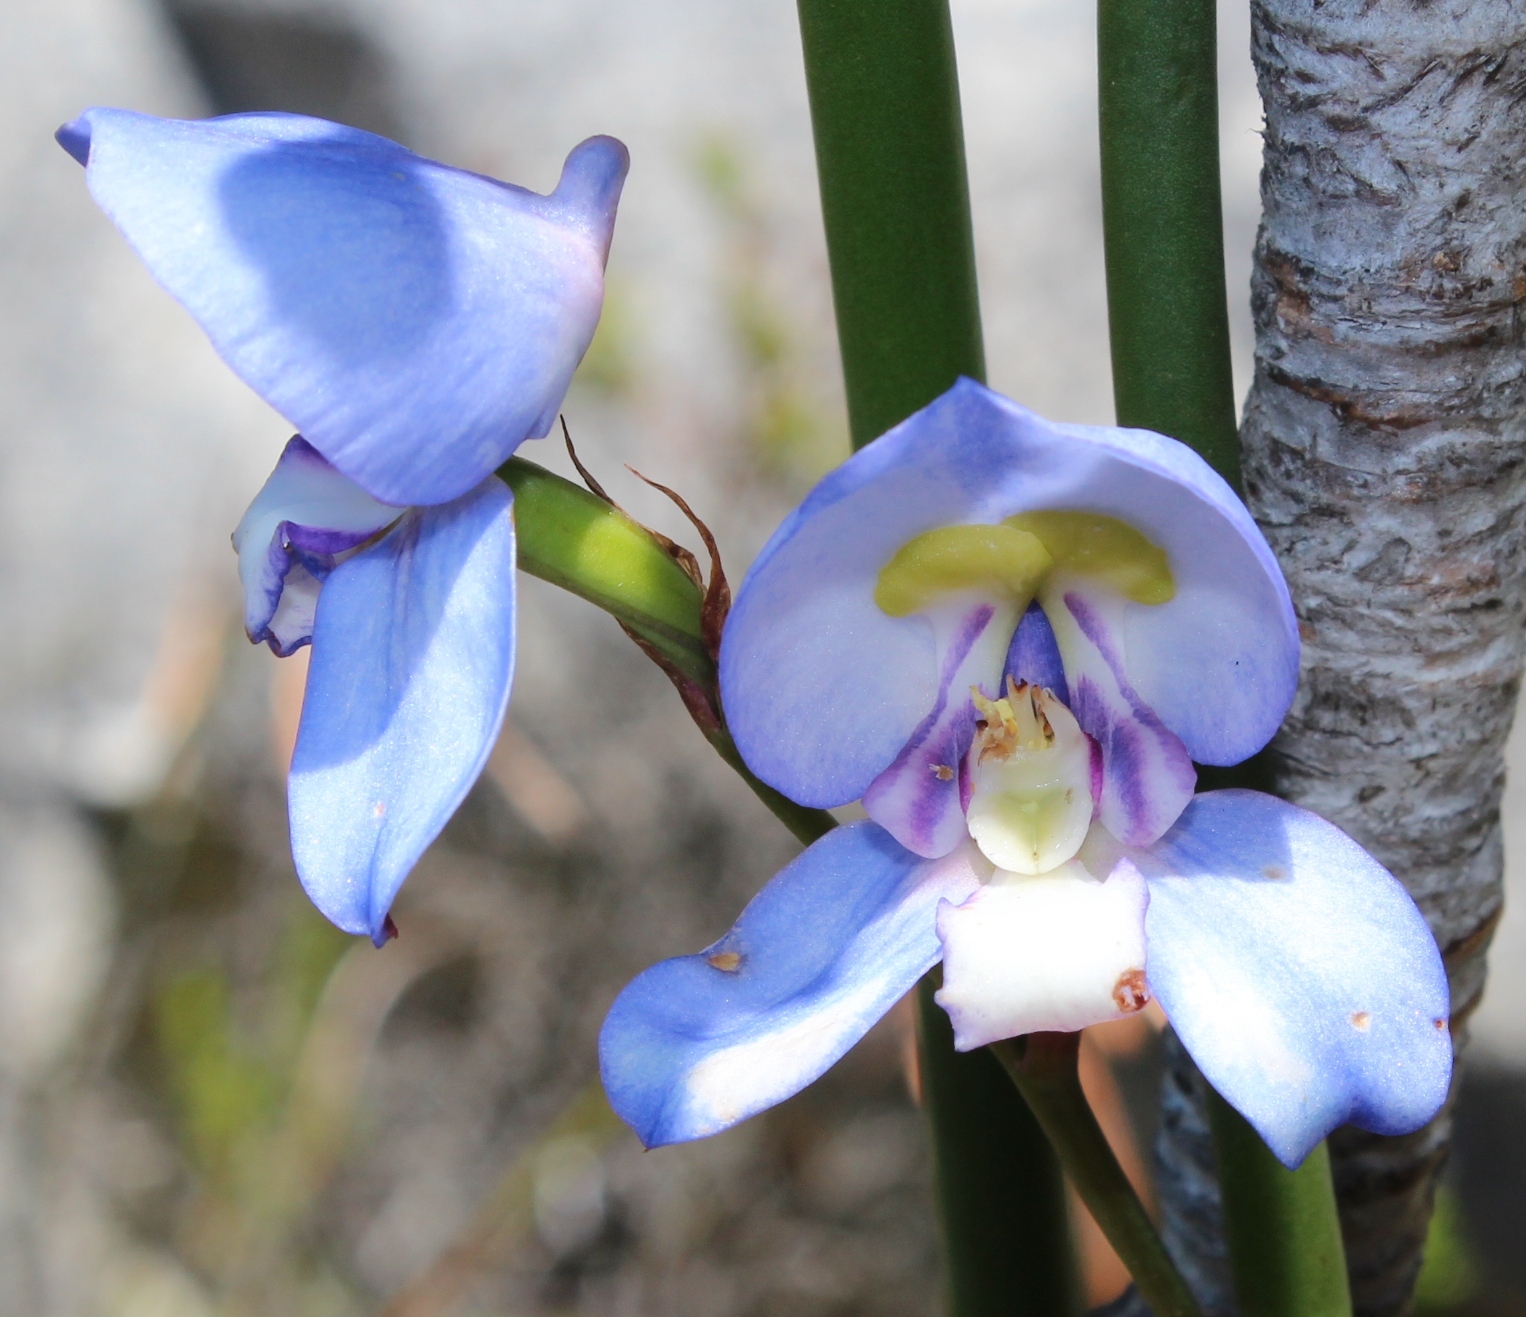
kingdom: Plantae
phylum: Tracheophyta
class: Liliopsida
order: Asparagales
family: Orchidaceae
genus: Disa
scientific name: Disa graminifolia
